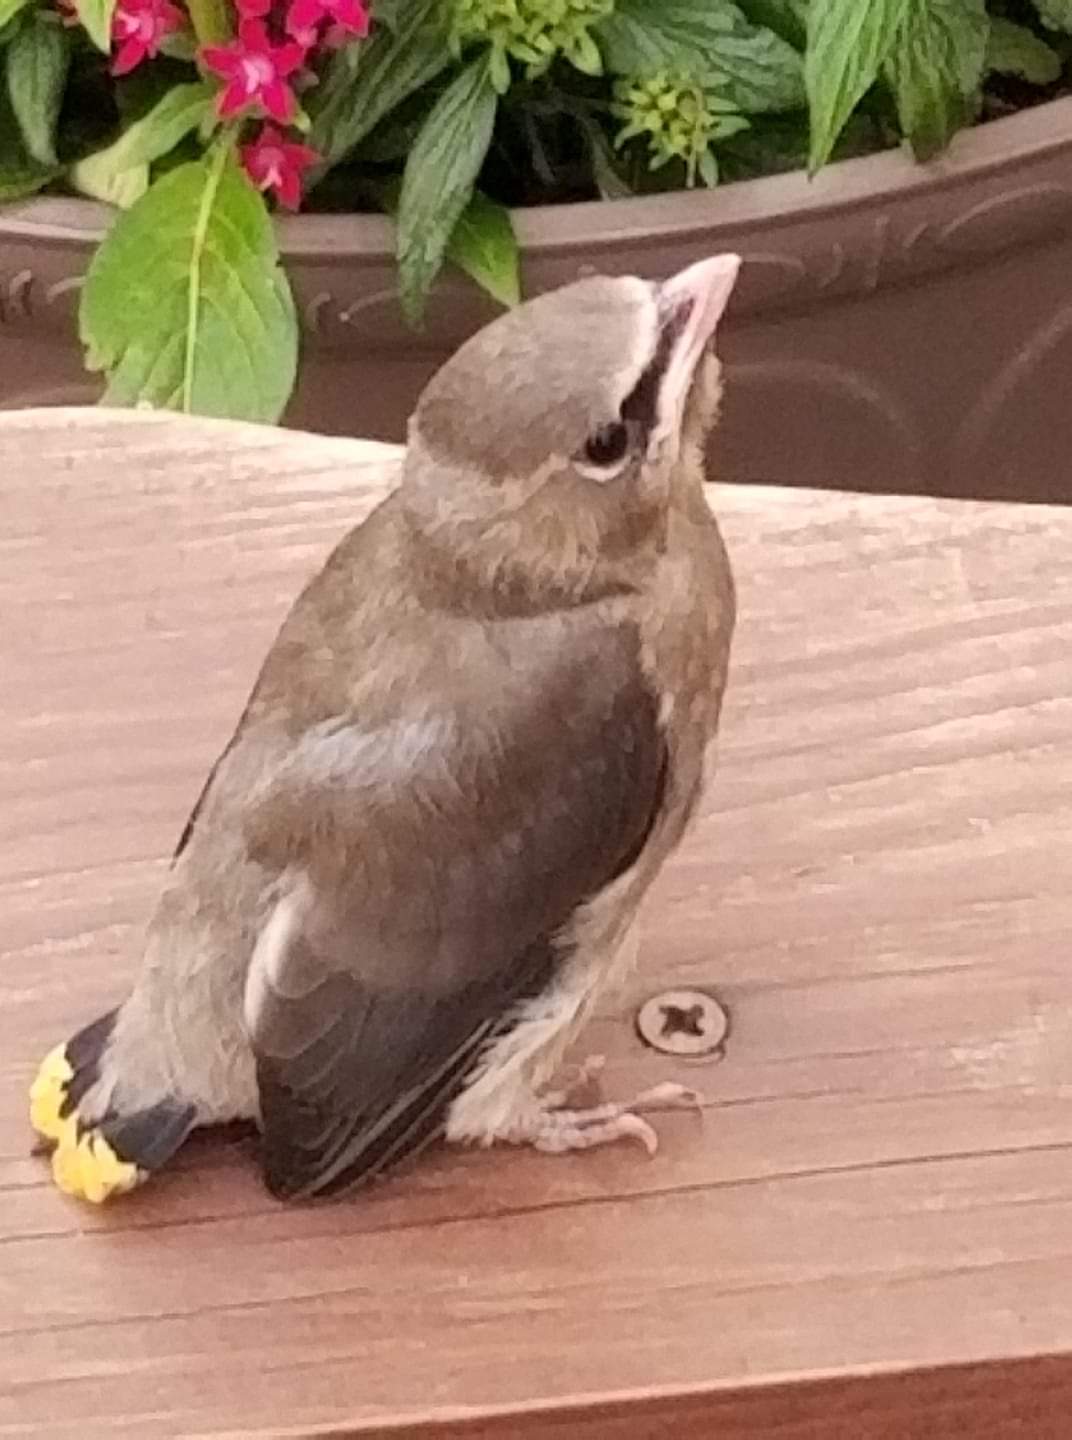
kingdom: Animalia
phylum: Chordata
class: Aves
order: Passeriformes
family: Bombycillidae
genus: Bombycilla
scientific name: Bombycilla cedrorum
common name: Cedar waxwing
